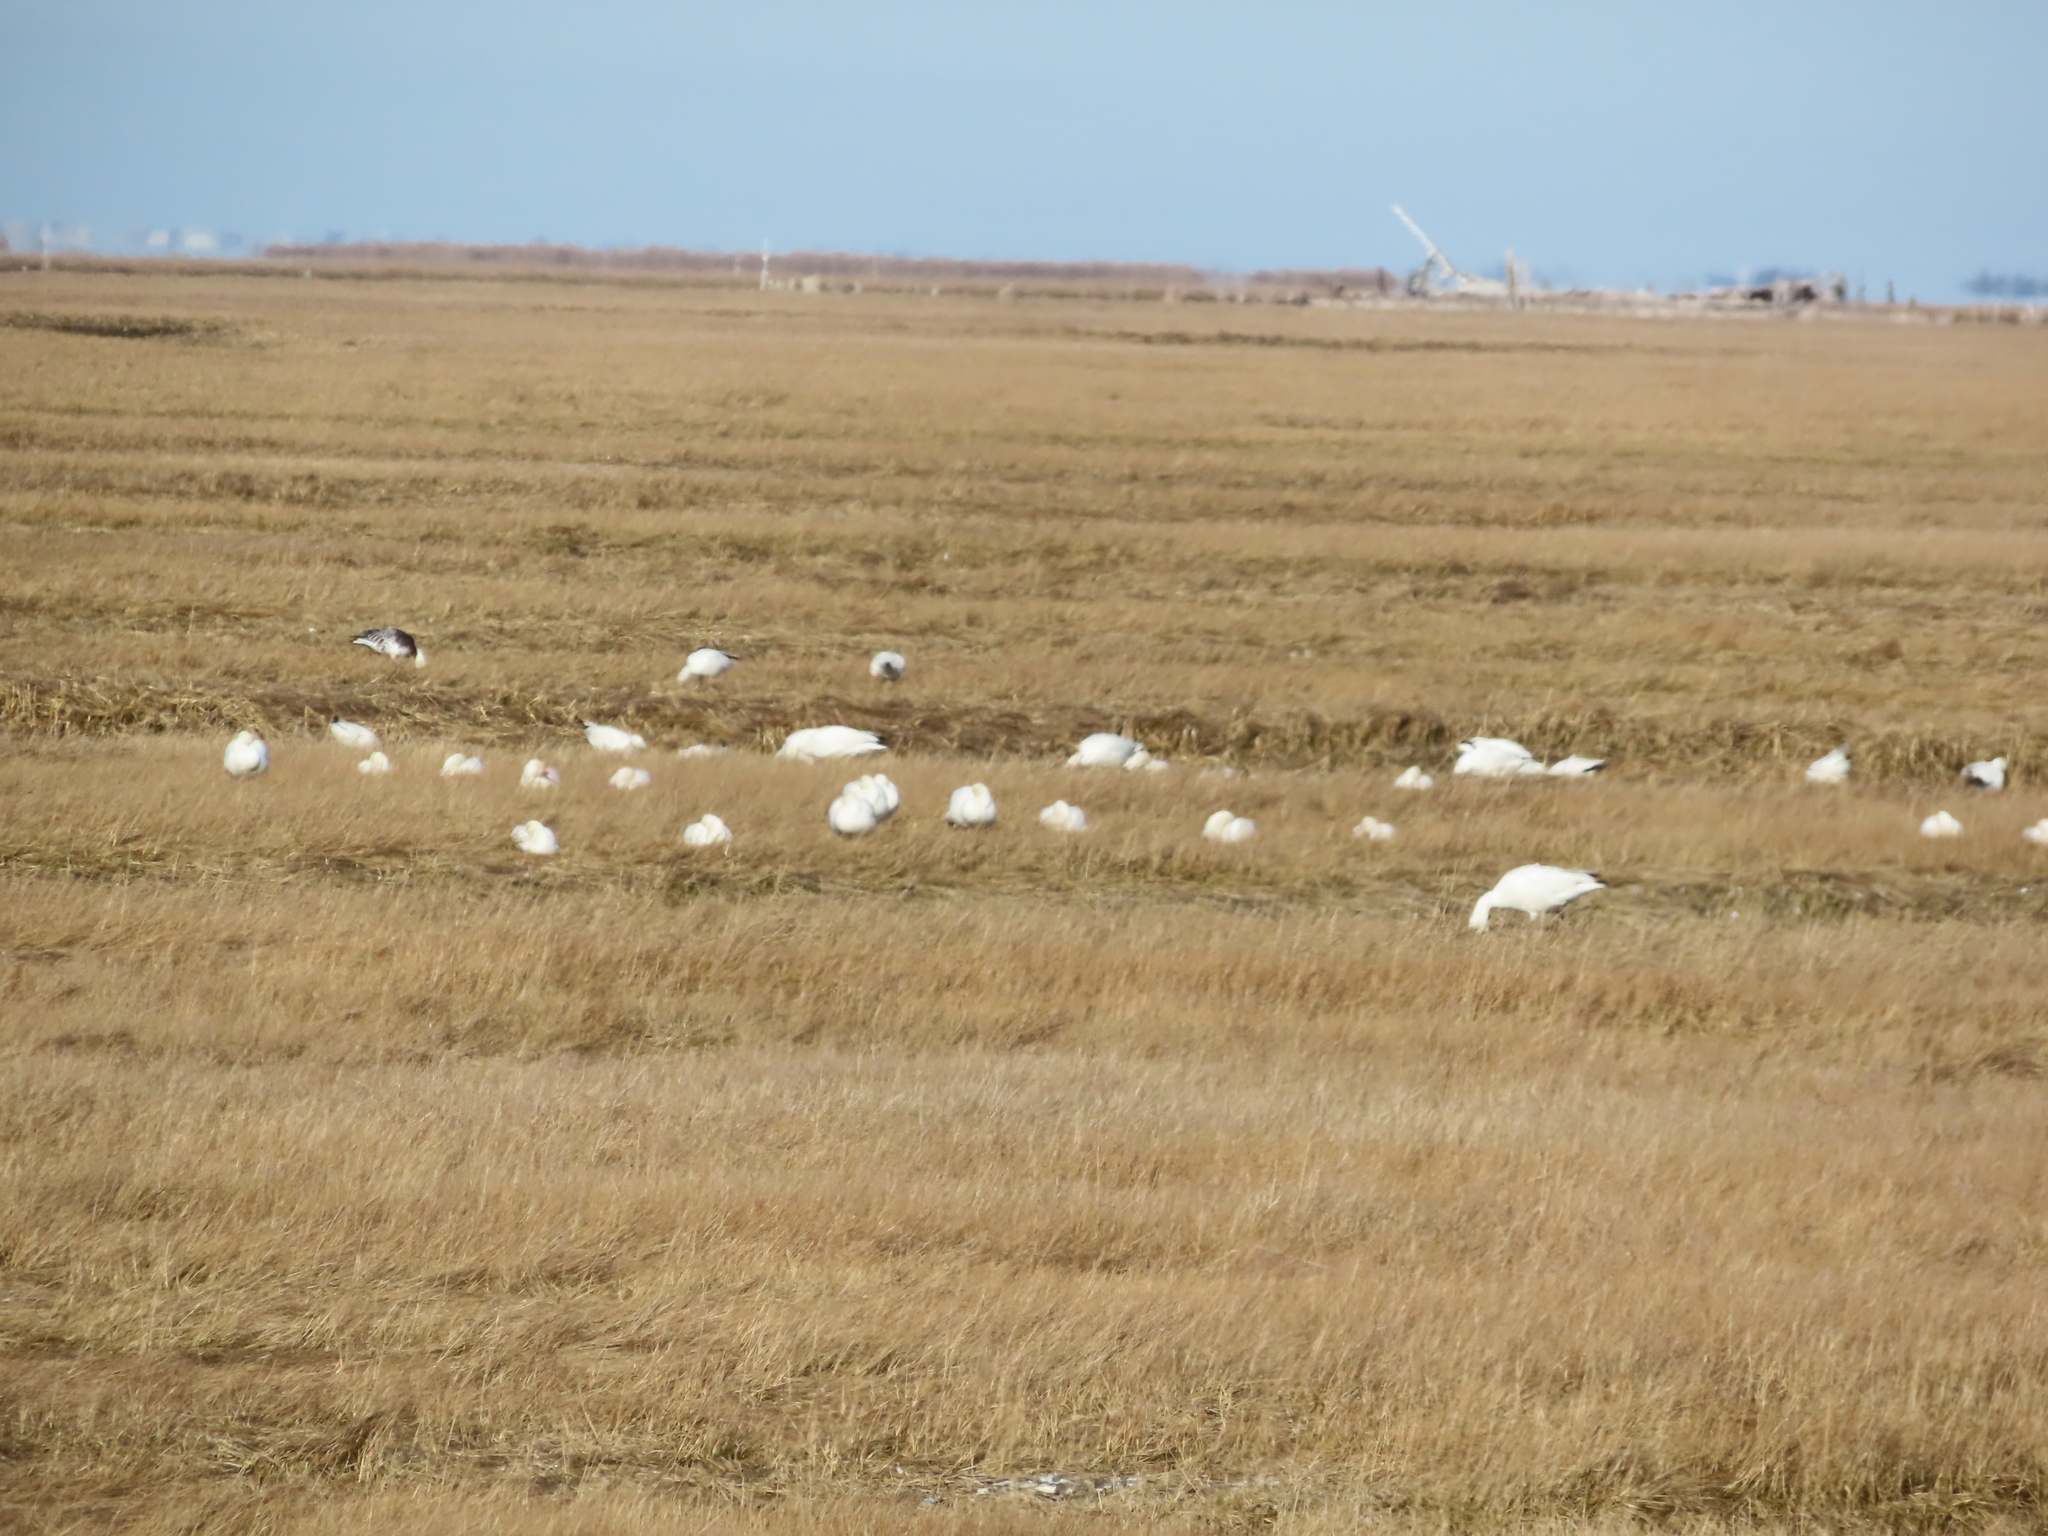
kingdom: Animalia
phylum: Chordata
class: Aves
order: Anseriformes
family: Anatidae
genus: Anser
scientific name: Anser caerulescens
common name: Snow goose
